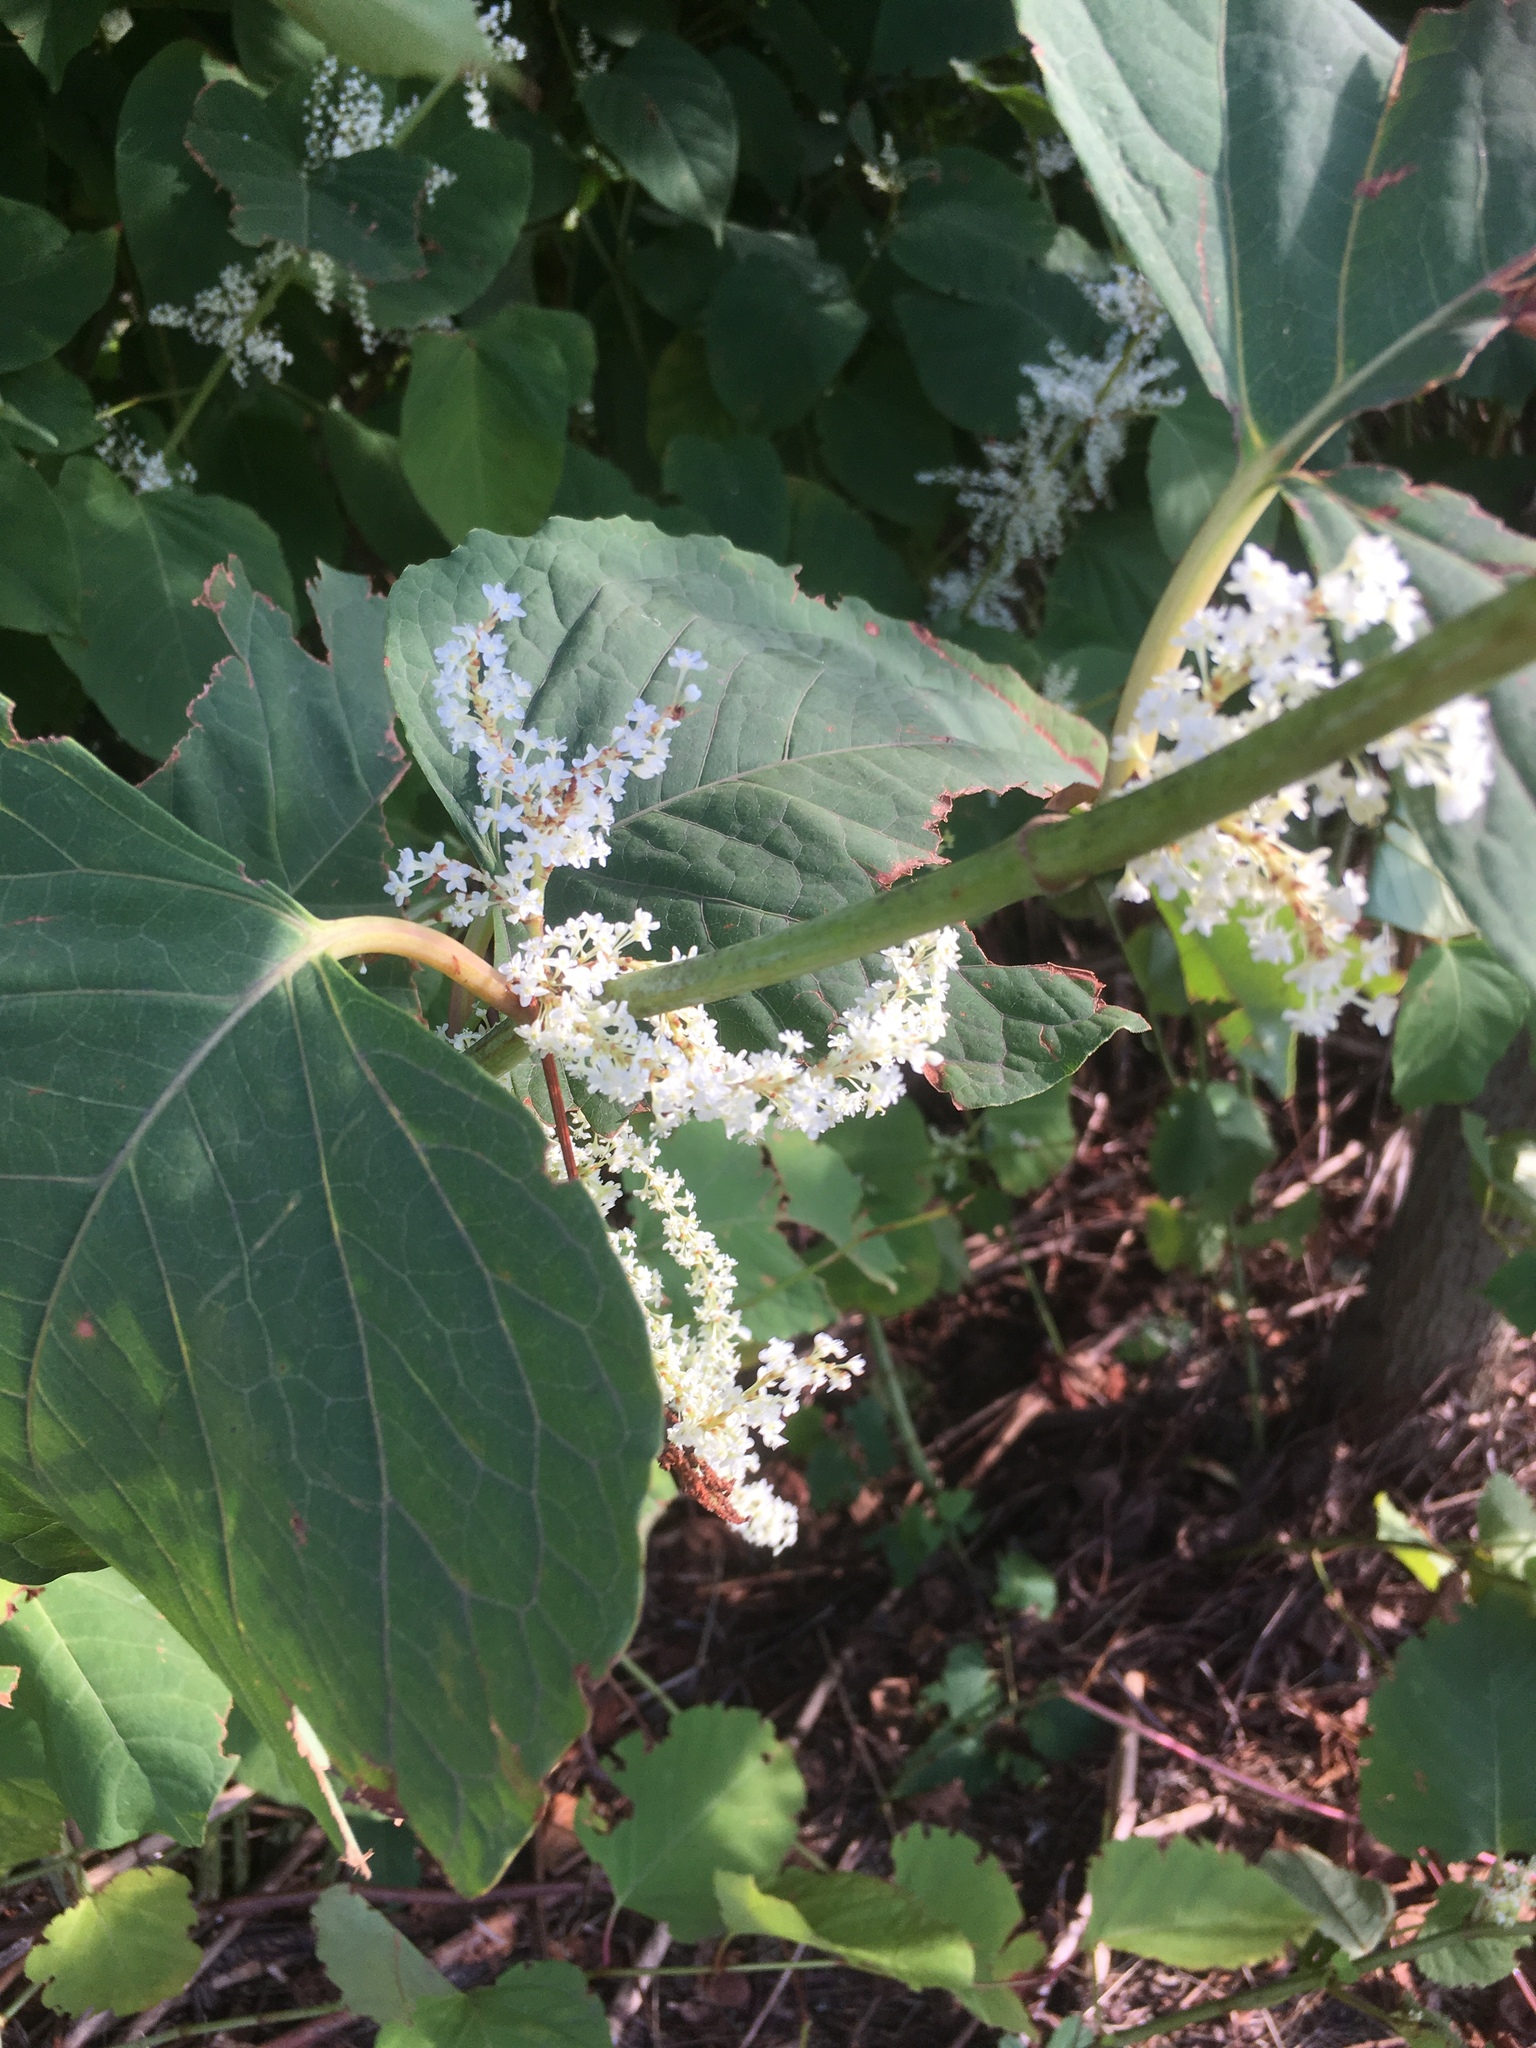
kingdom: Plantae
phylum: Tracheophyta
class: Magnoliopsida
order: Caryophyllales
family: Polygonaceae
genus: Reynoutria
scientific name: Reynoutria japonica
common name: Japanese knotweed
